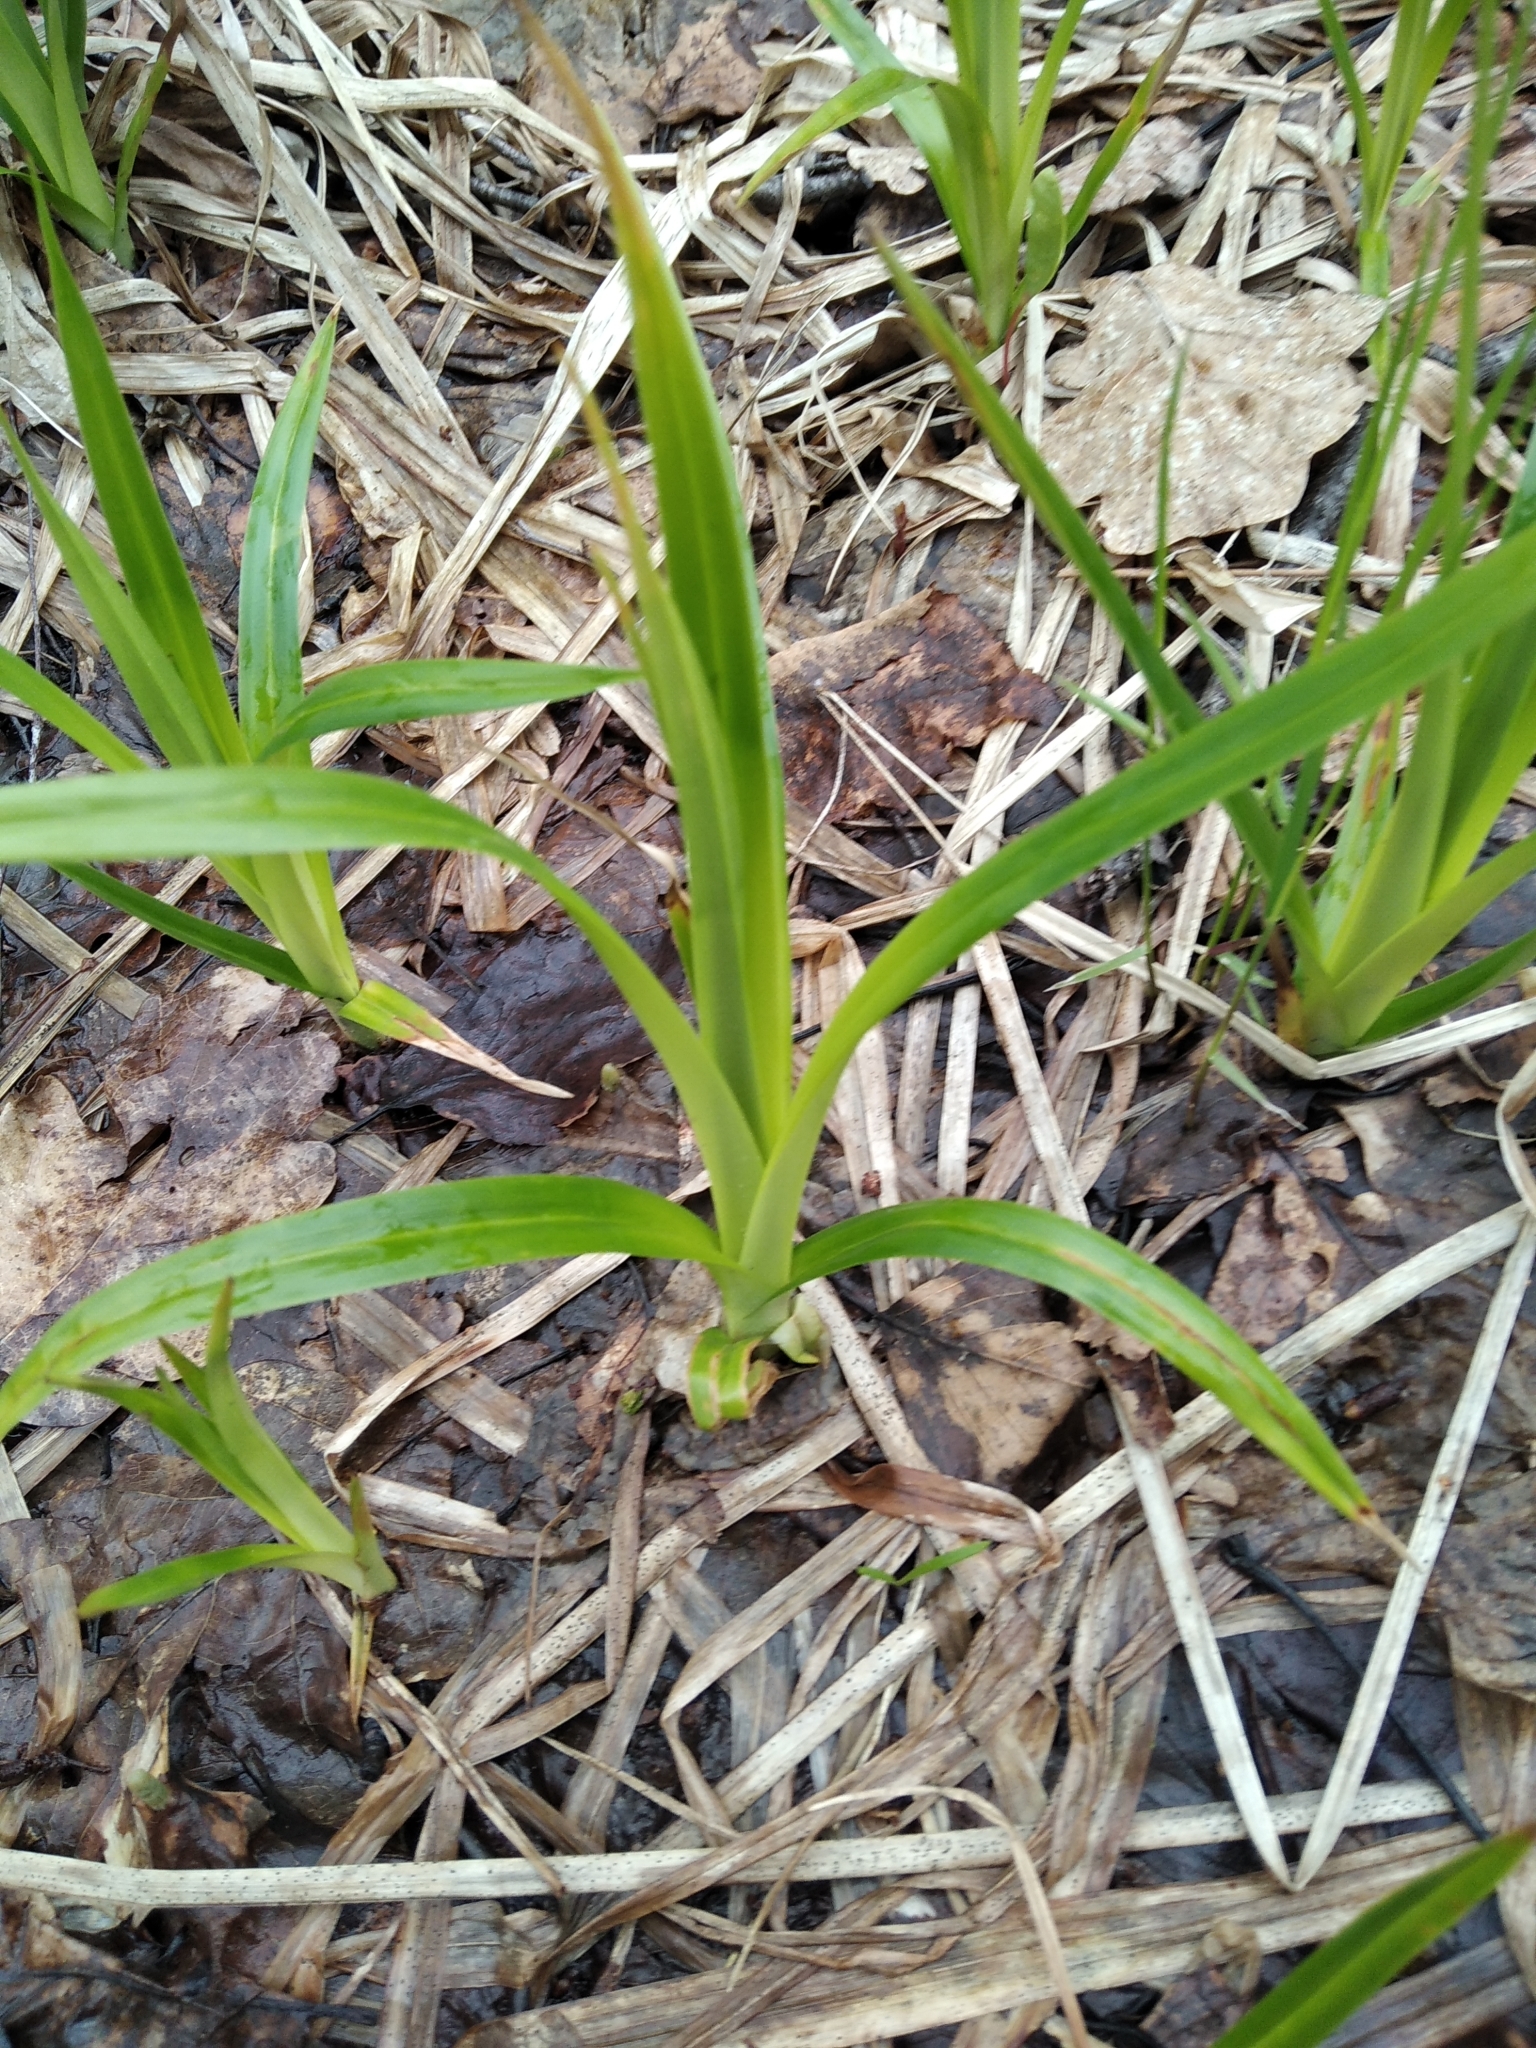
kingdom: Plantae
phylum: Tracheophyta
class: Liliopsida
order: Poales
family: Cyperaceae
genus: Scirpus
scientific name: Scirpus sylvaticus
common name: Wood club-rush
